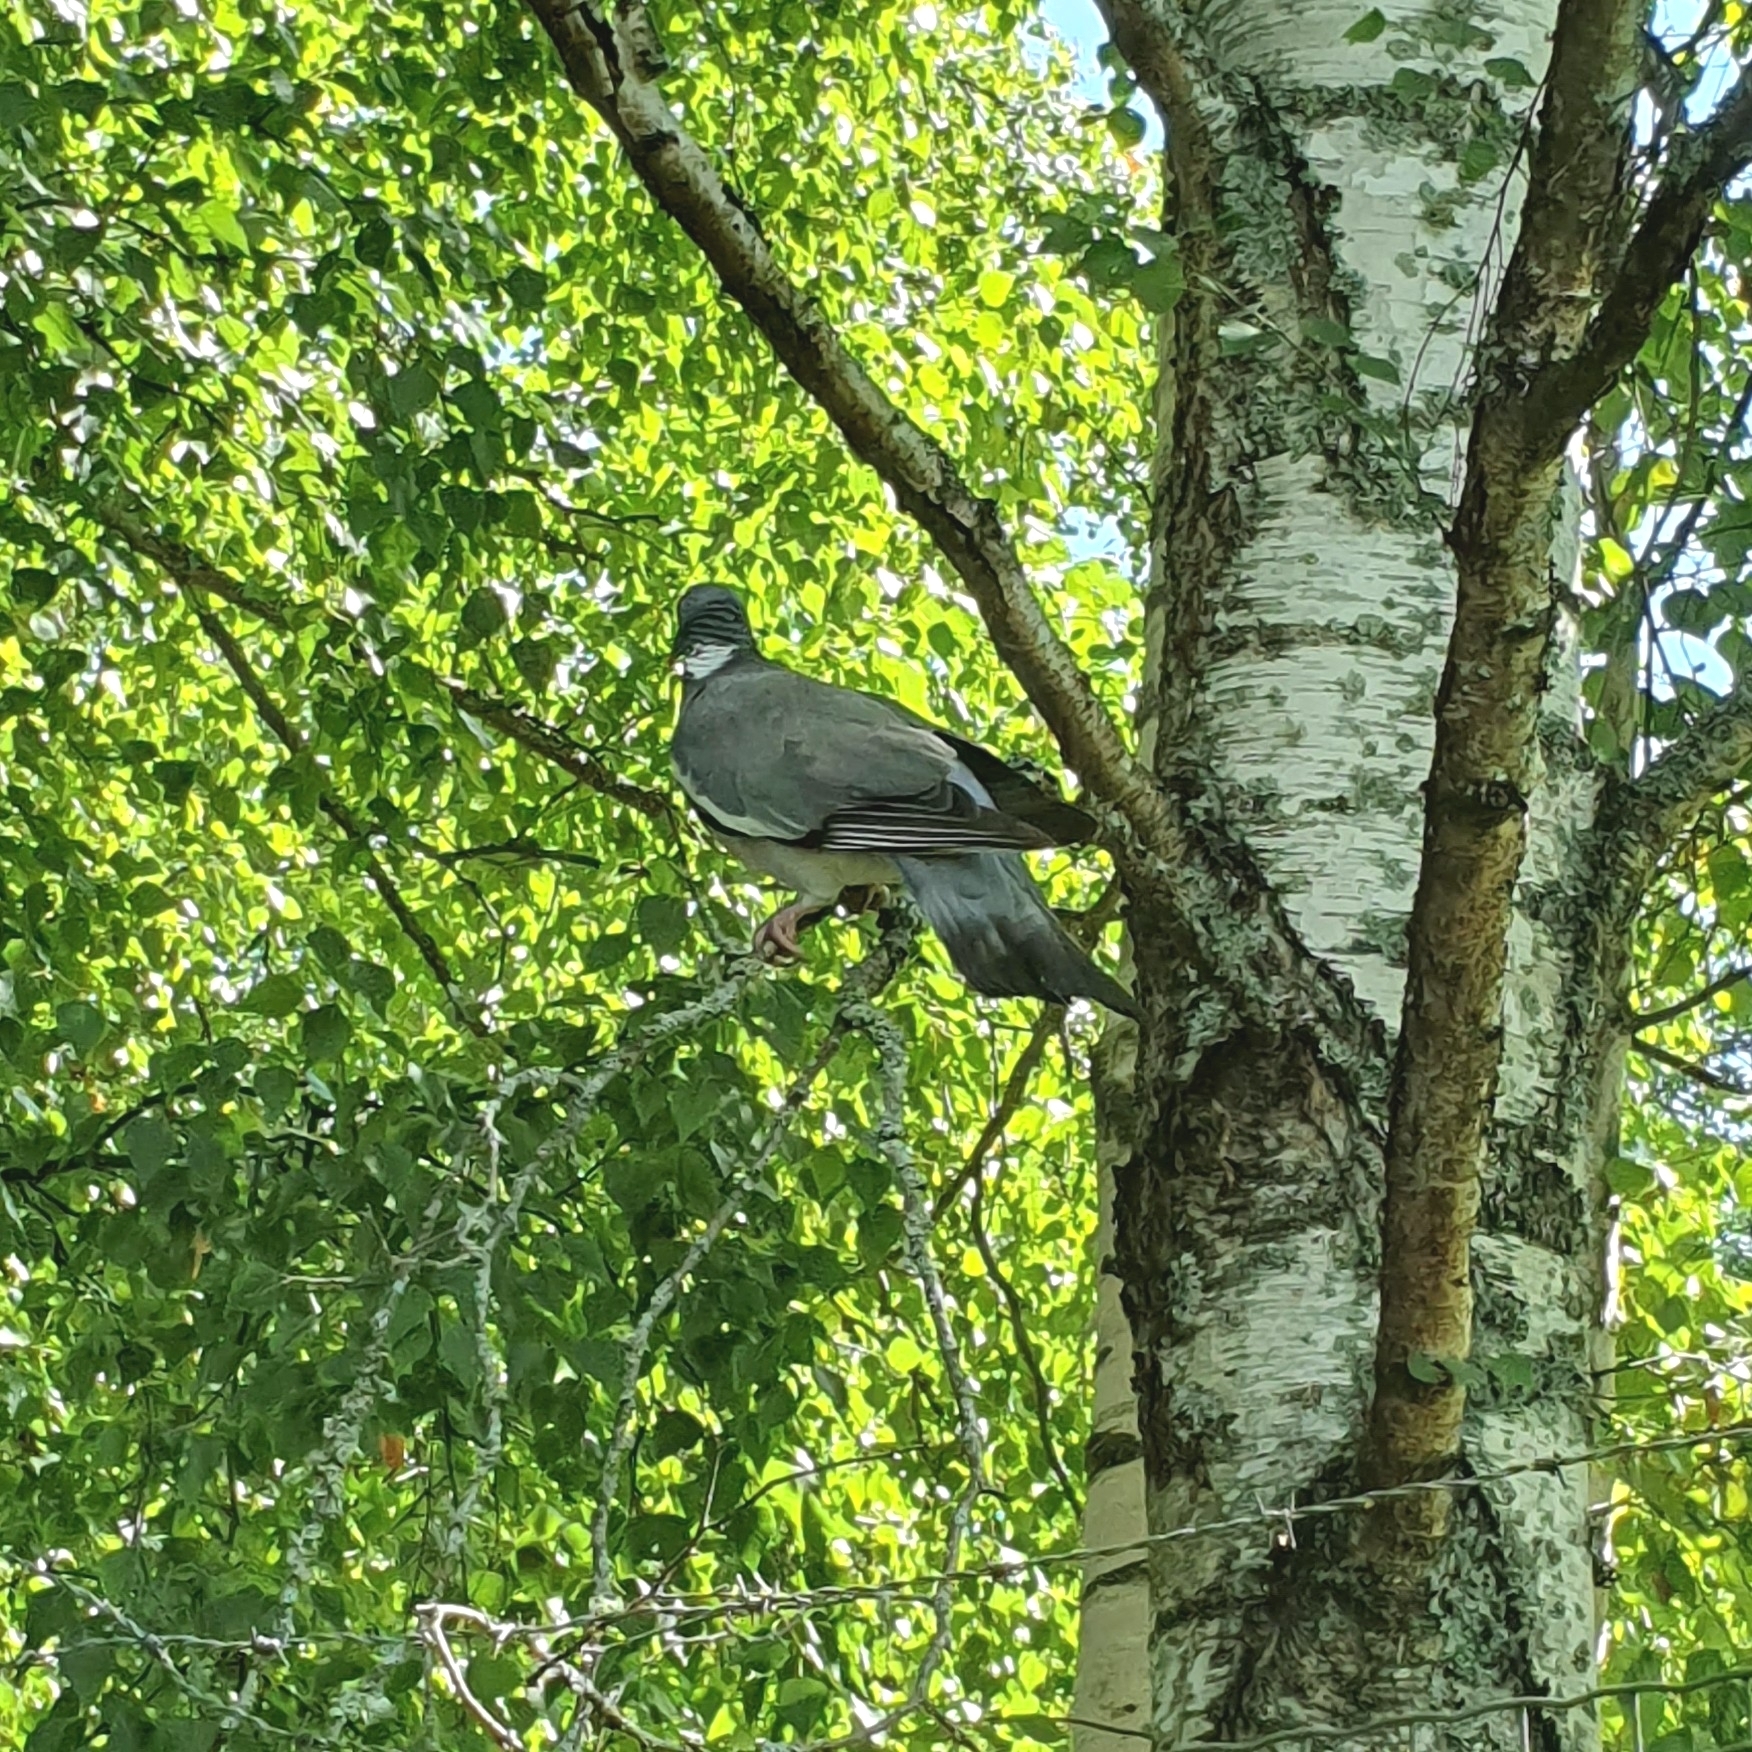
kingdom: Animalia
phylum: Chordata
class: Aves
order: Columbiformes
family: Columbidae
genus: Columba
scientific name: Columba palumbus
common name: Common wood pigeon
